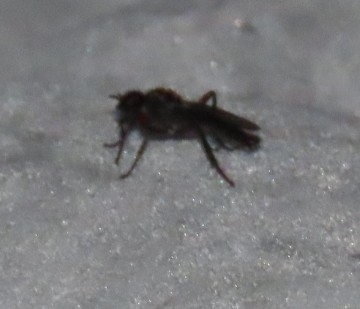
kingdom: Animalia
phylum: Arthropoda
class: Insecta
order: Diptera
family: Bibionidae
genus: Bibio
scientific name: Bibio femoratus
